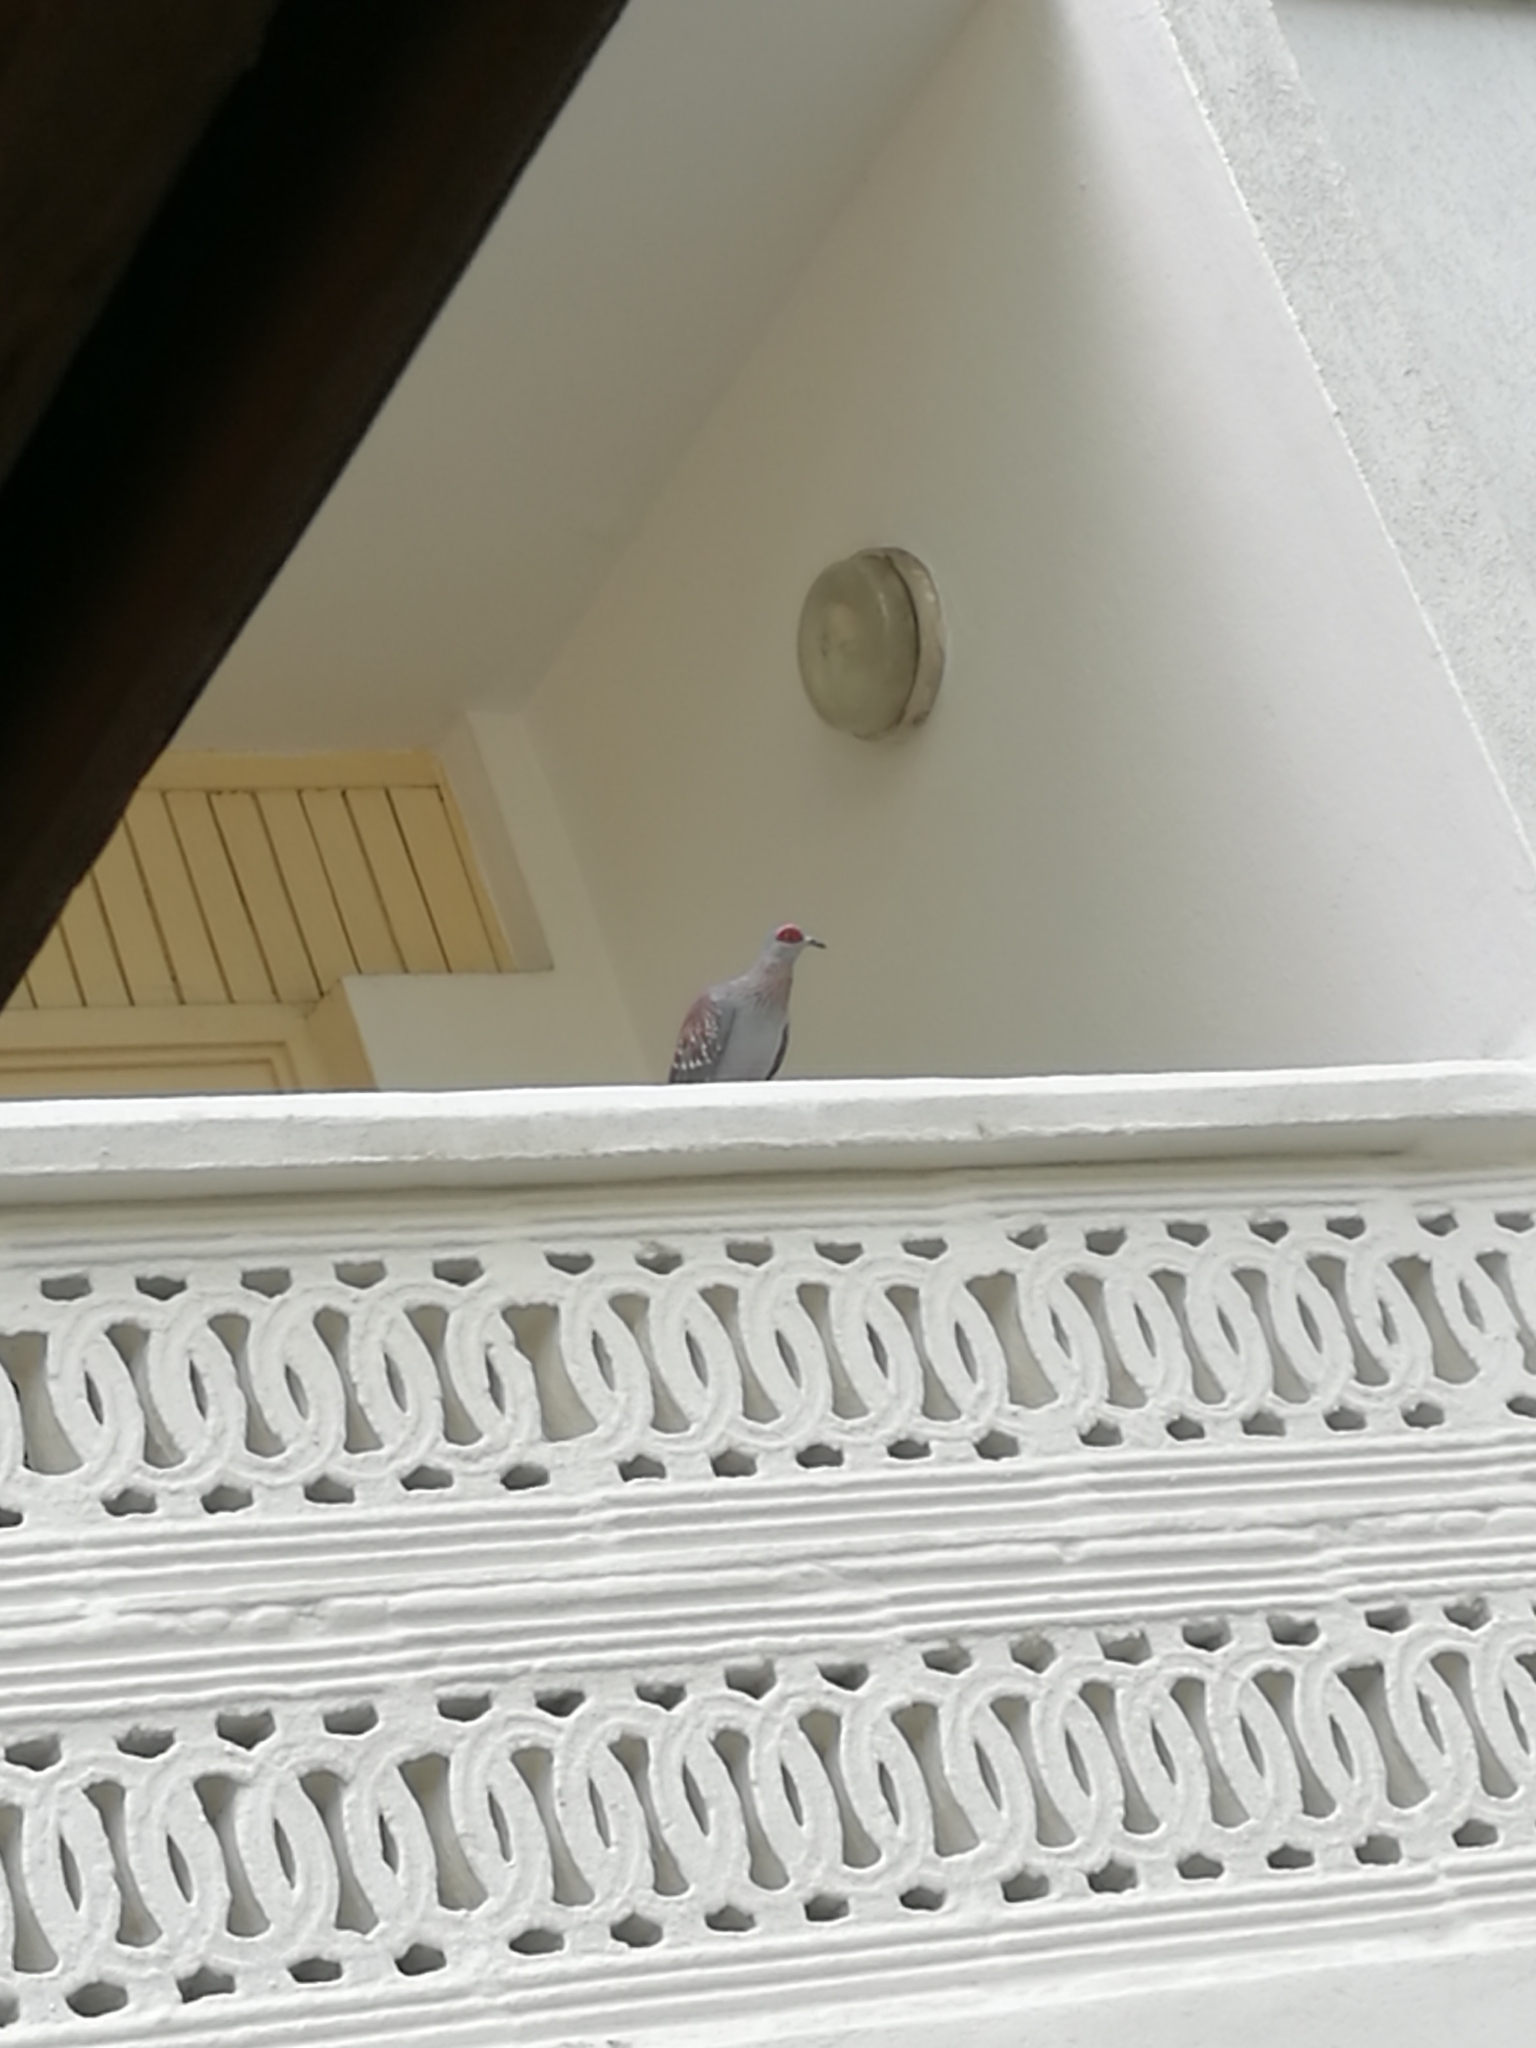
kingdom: Animalia
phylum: Chordata
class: Aves
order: Columbiformes
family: Columbidae
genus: Columba
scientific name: Columba guinea
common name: Speckled pigeon
